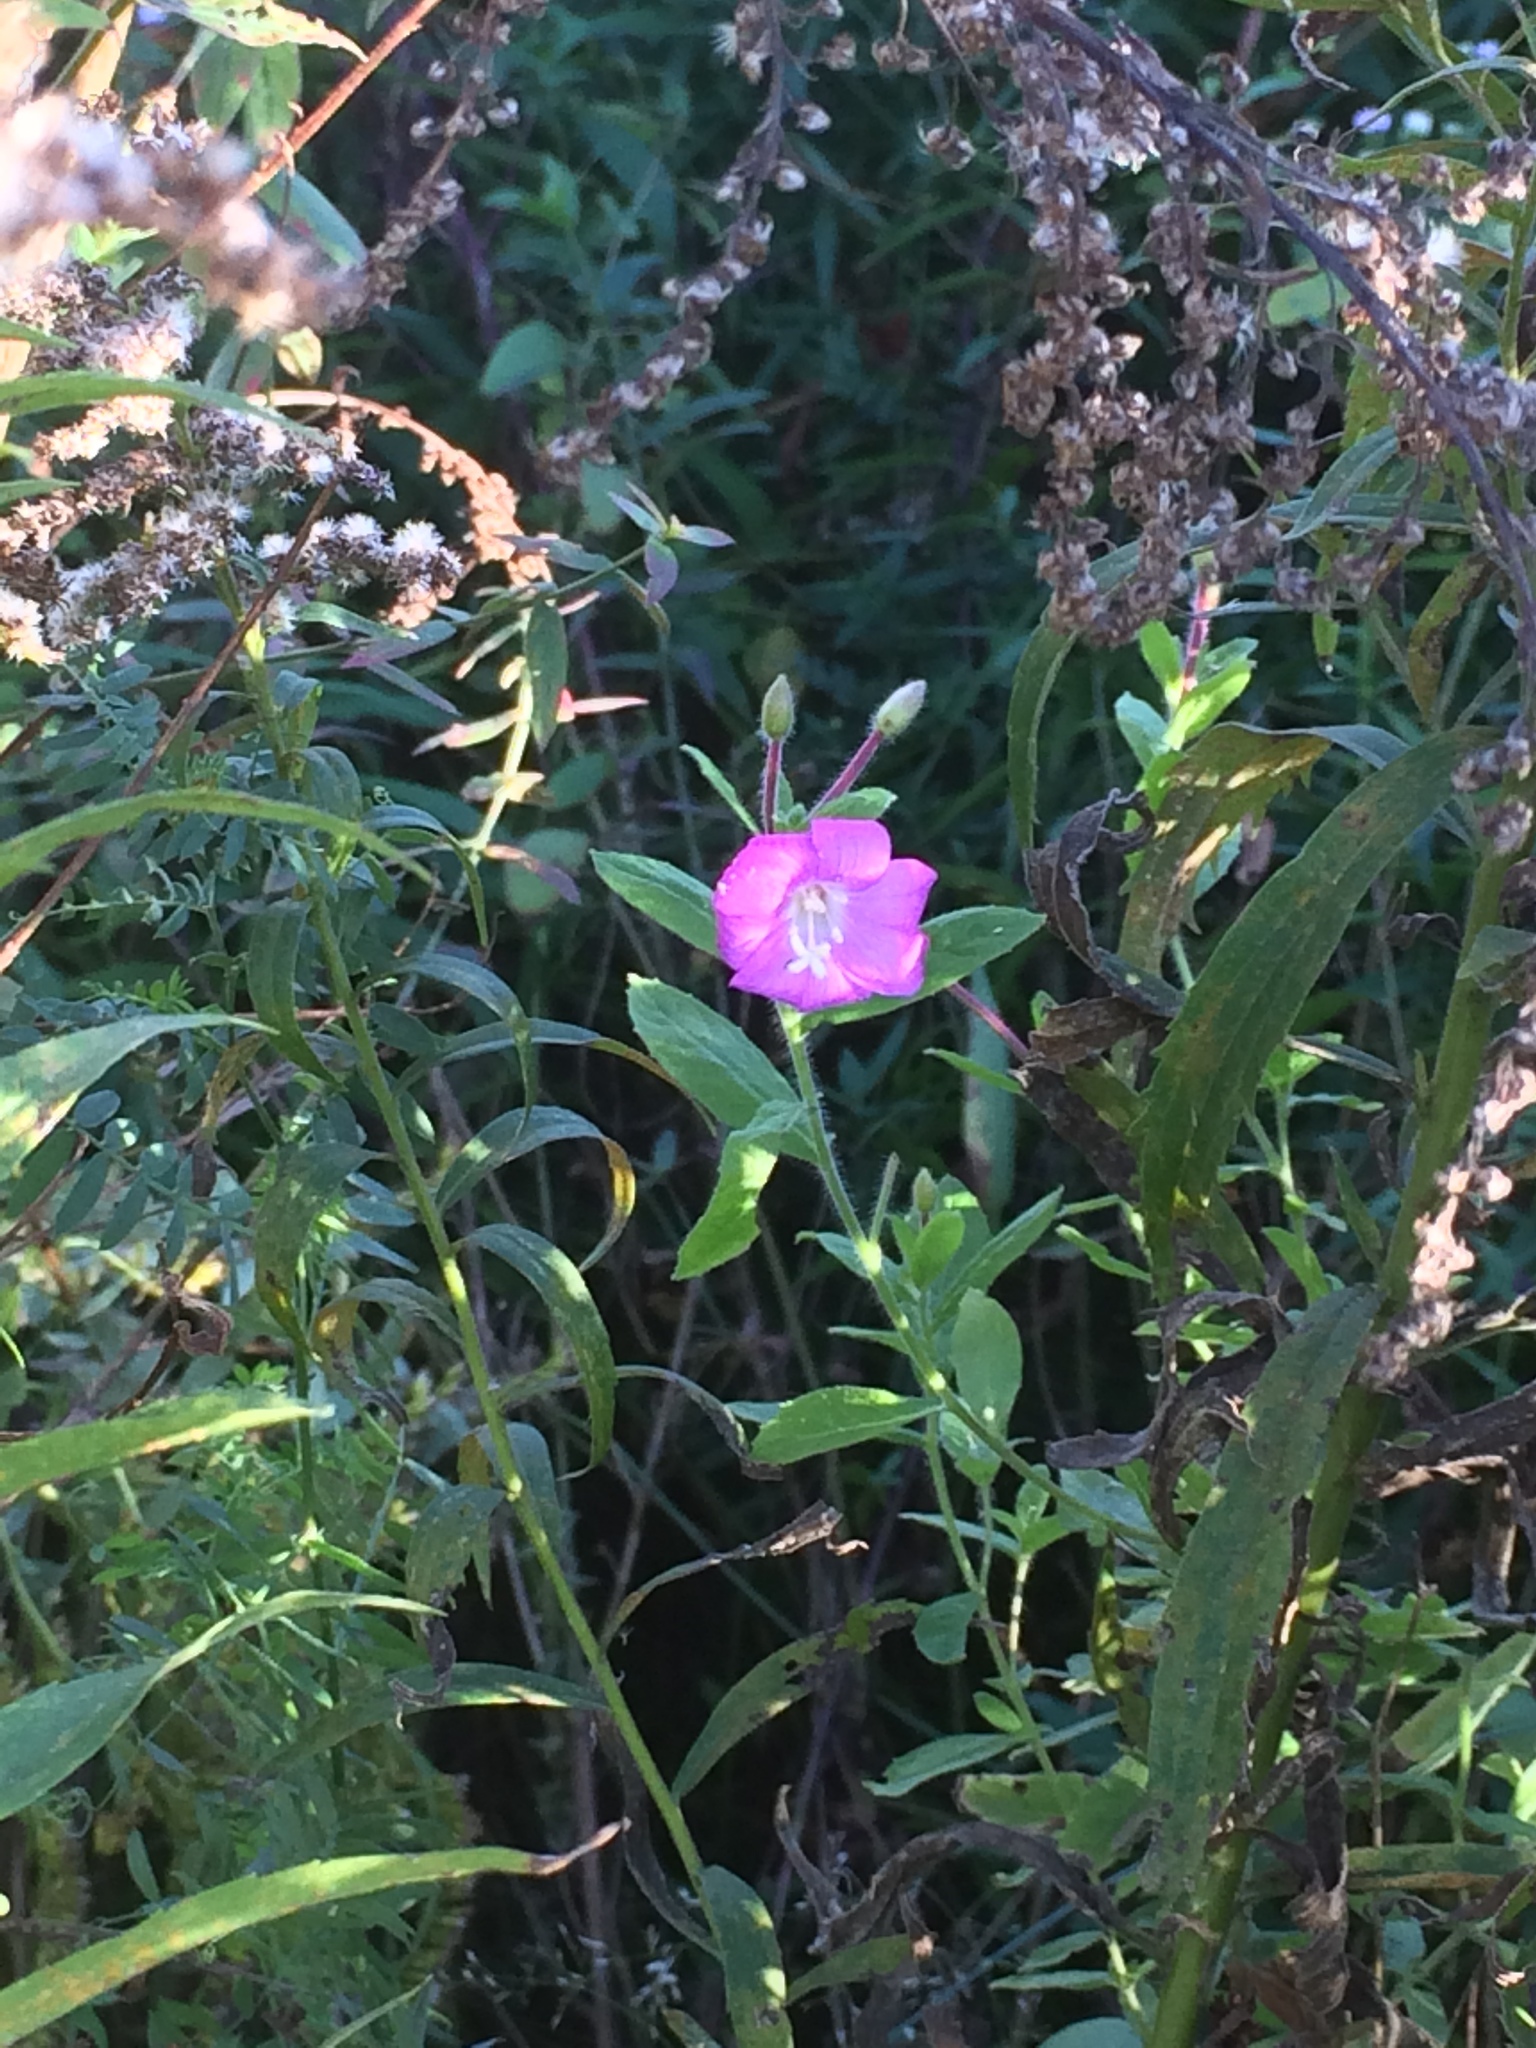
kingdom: Plantae
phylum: Tracheophyta
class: Magnoliopsida
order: Myrtales
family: Onagraceae
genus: Epilobium
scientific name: Epilobium hirsutum
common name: Great willowherb
